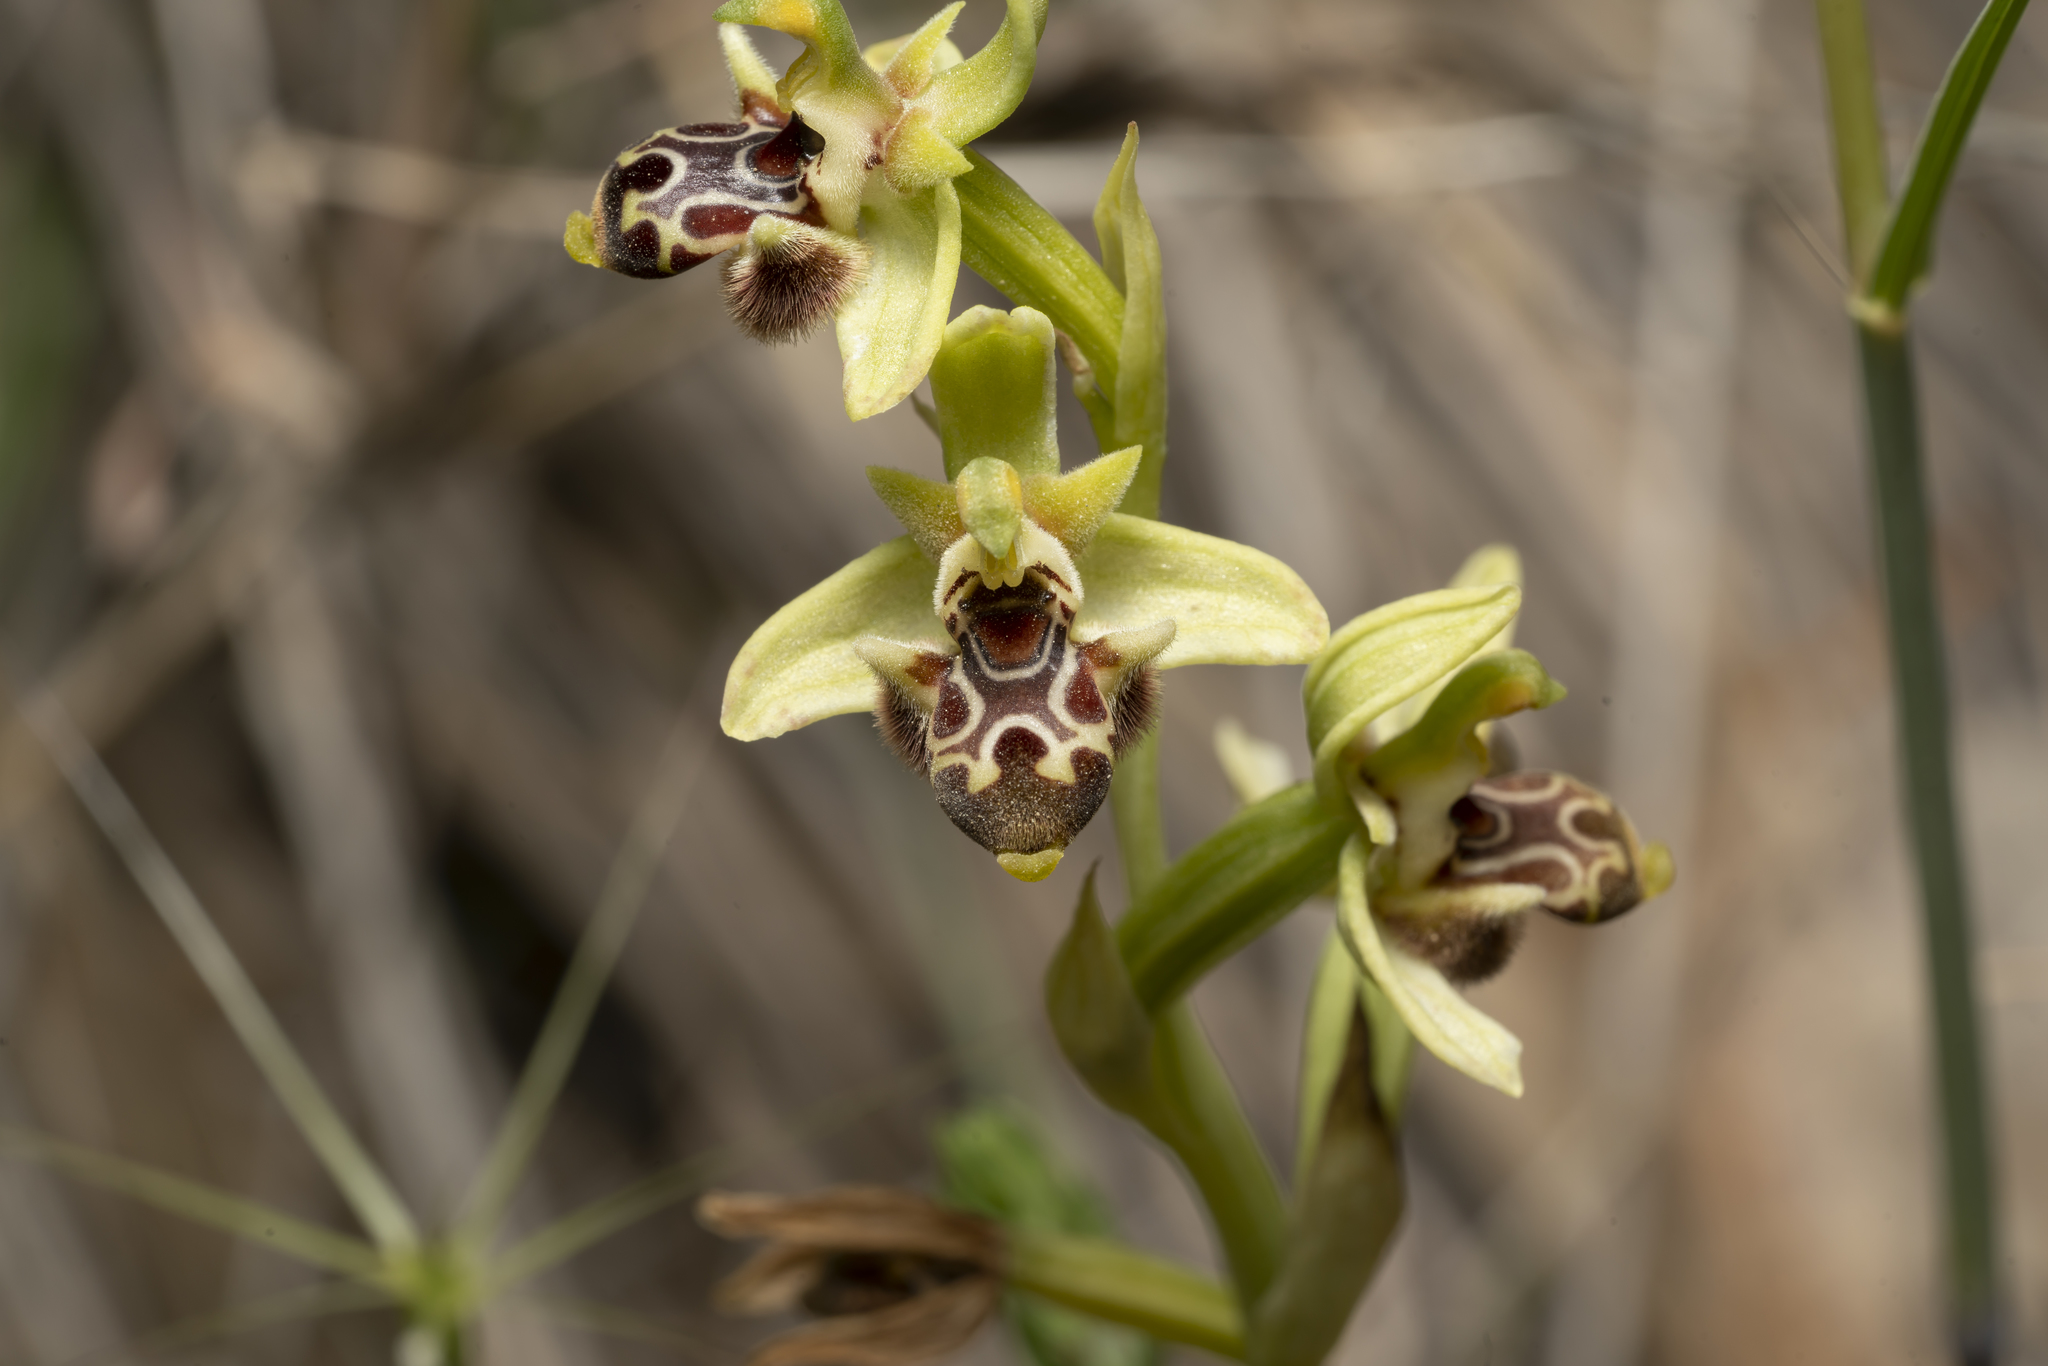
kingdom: Plantae
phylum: Tracheophyta
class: Liliopsida
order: Asparagales
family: Orchidaceae
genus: Ophrys
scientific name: Ophrys scolopax
